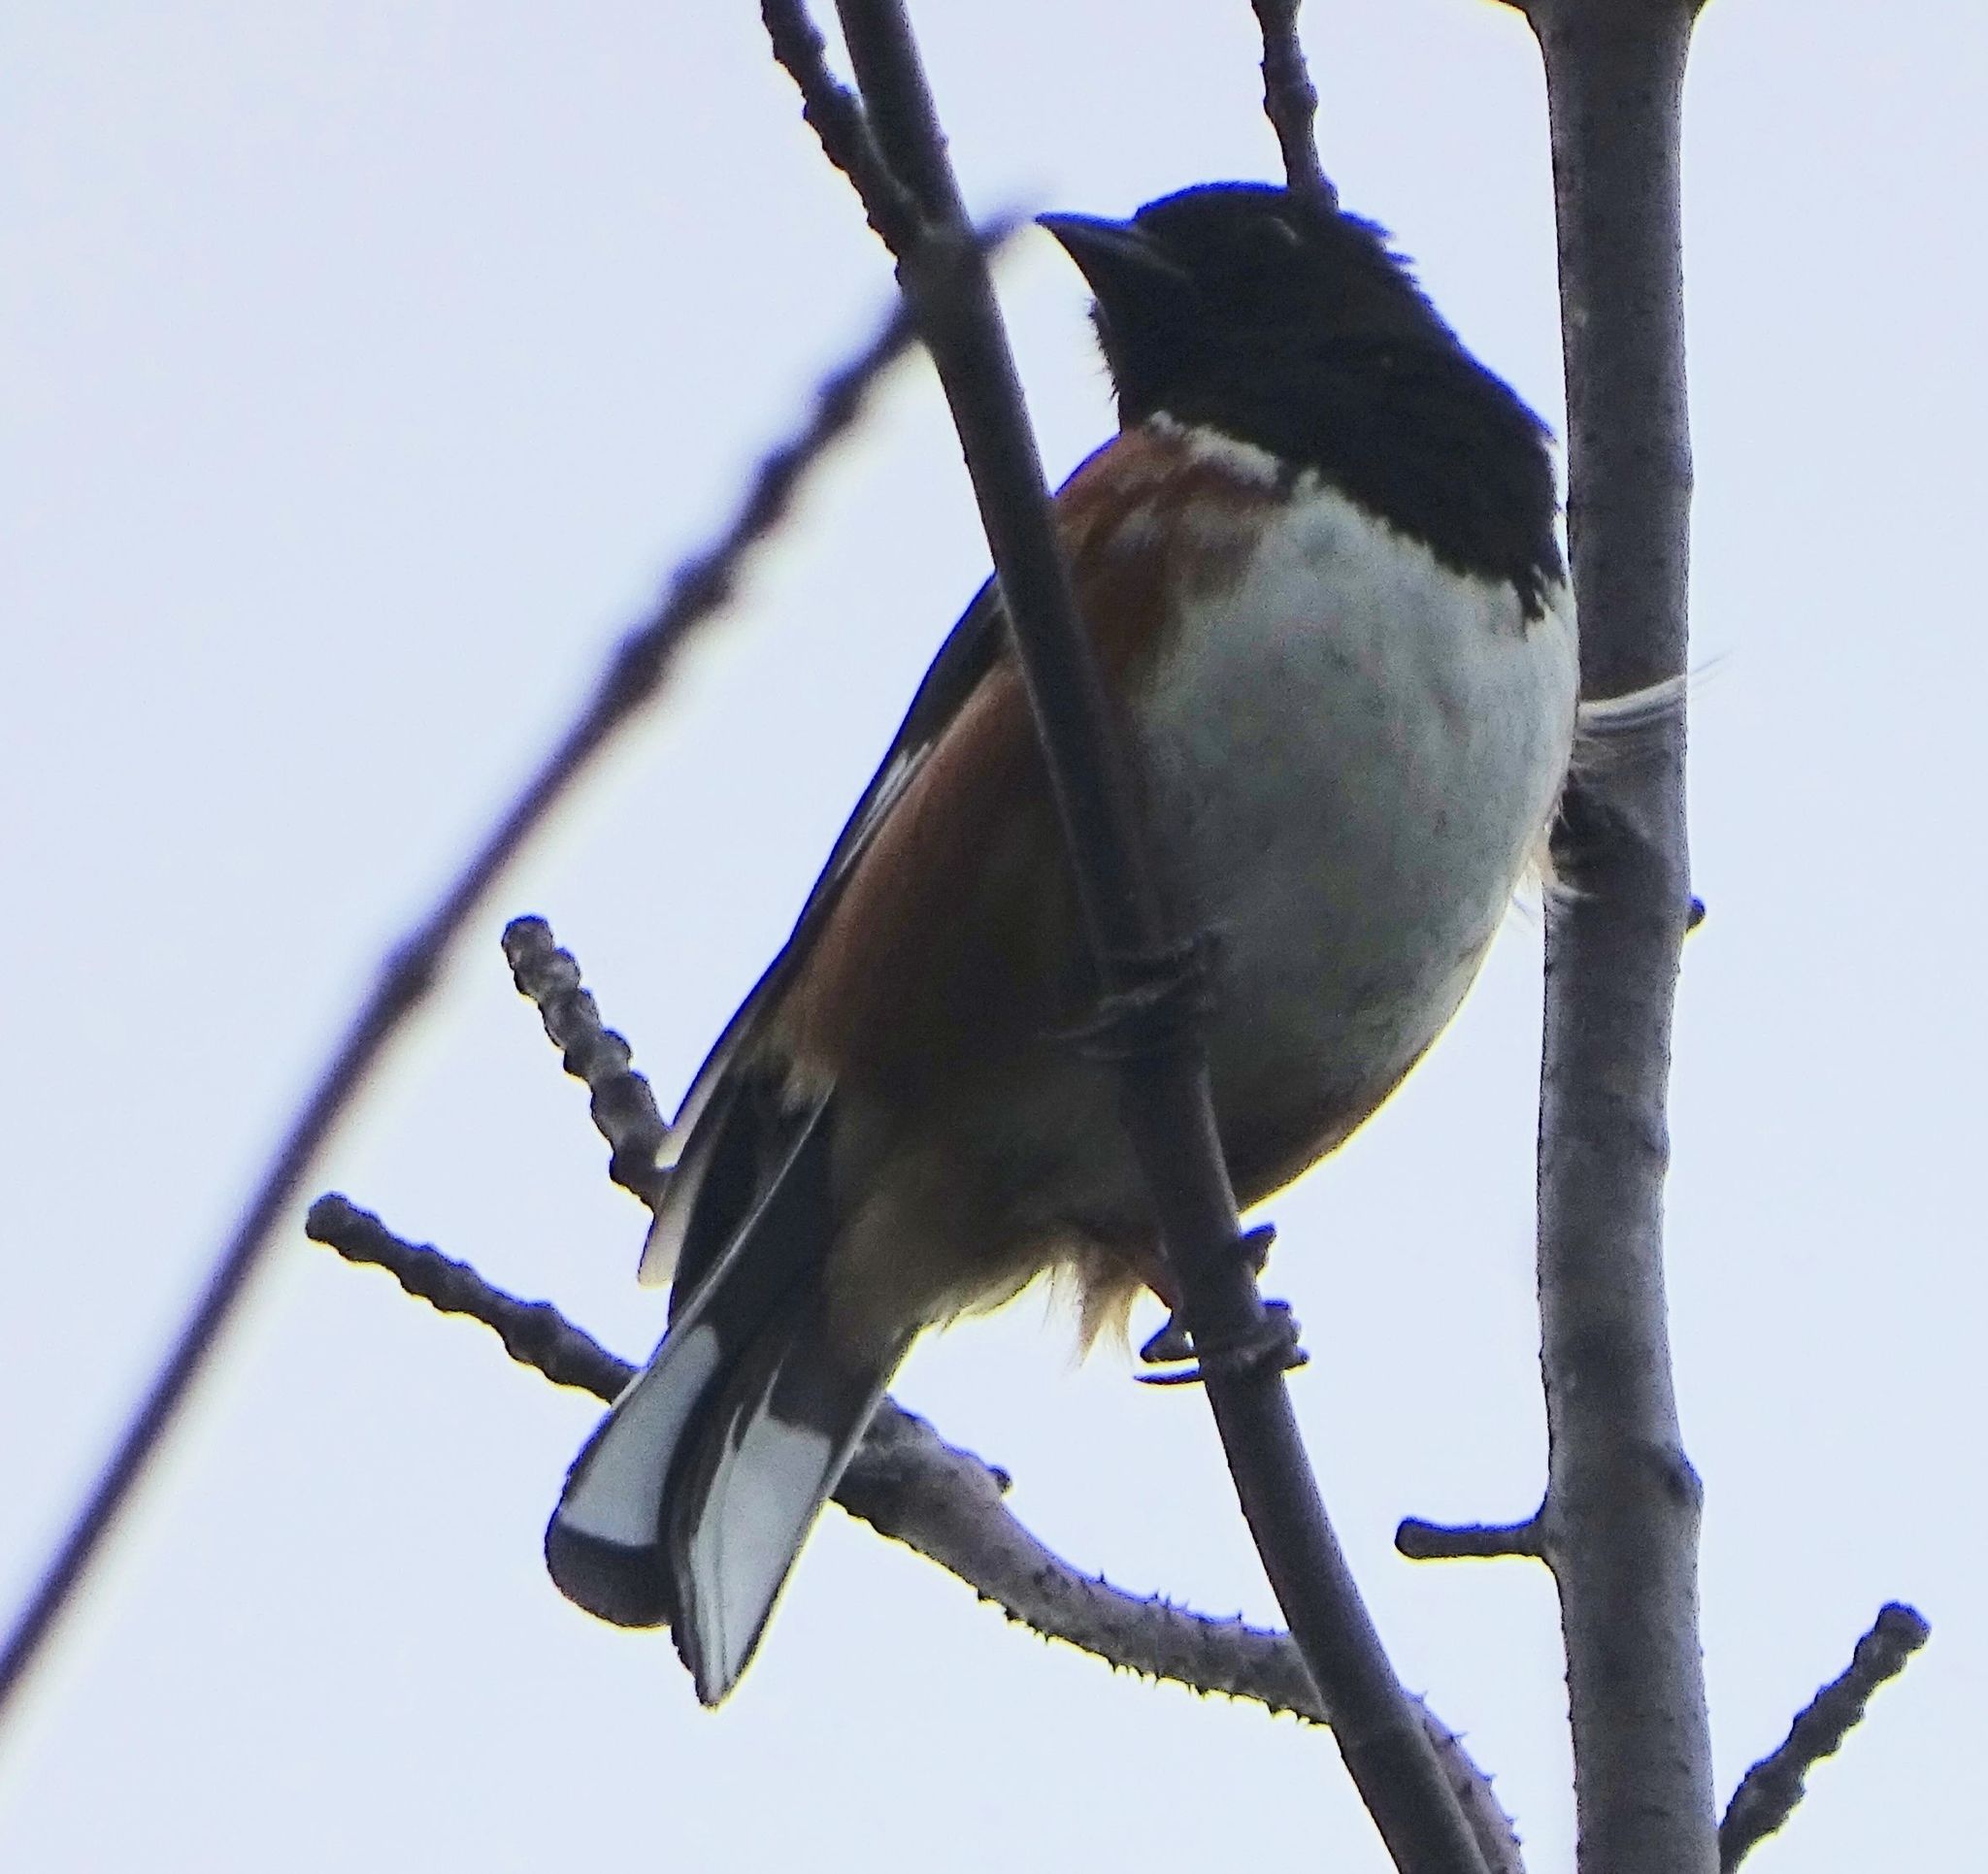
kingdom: Animalia
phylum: Chordata
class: Aves
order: Passeriformes
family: Passerellidae
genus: Pipilo
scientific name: Pipilo erythrophthalmus
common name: Eastern towhee
